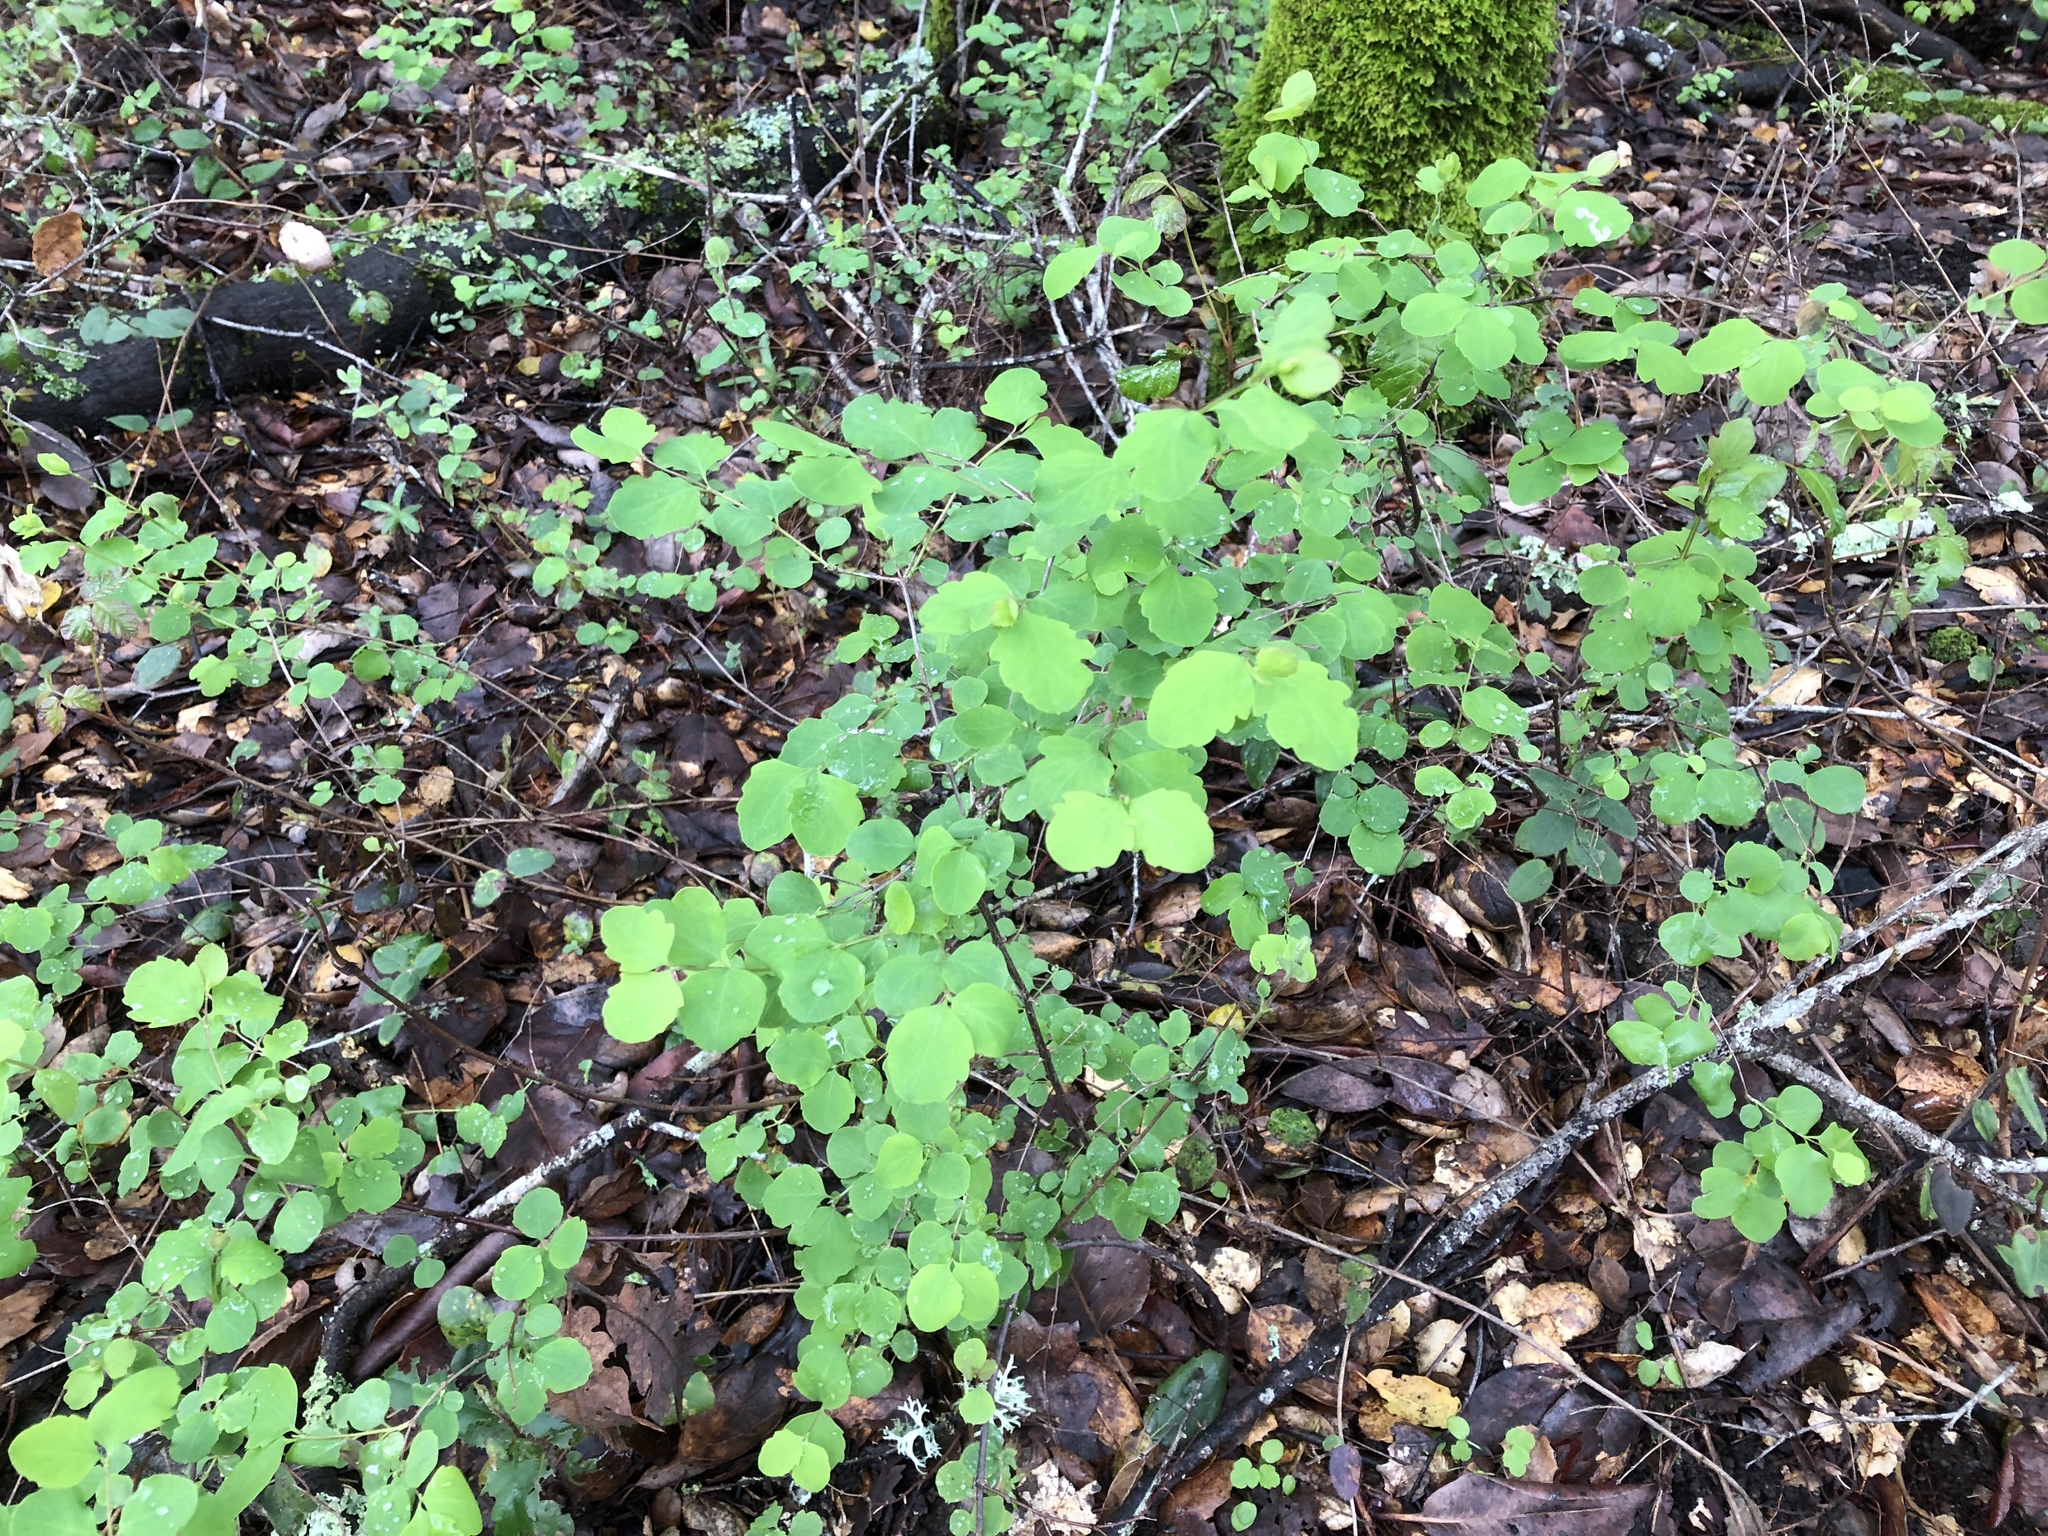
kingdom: Plantae
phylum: Tracheophyta
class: Magnoliopsida
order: Dipsacales
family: Caprifoliaceae
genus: Symphoricarpos
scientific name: Symphoricarpos albus
